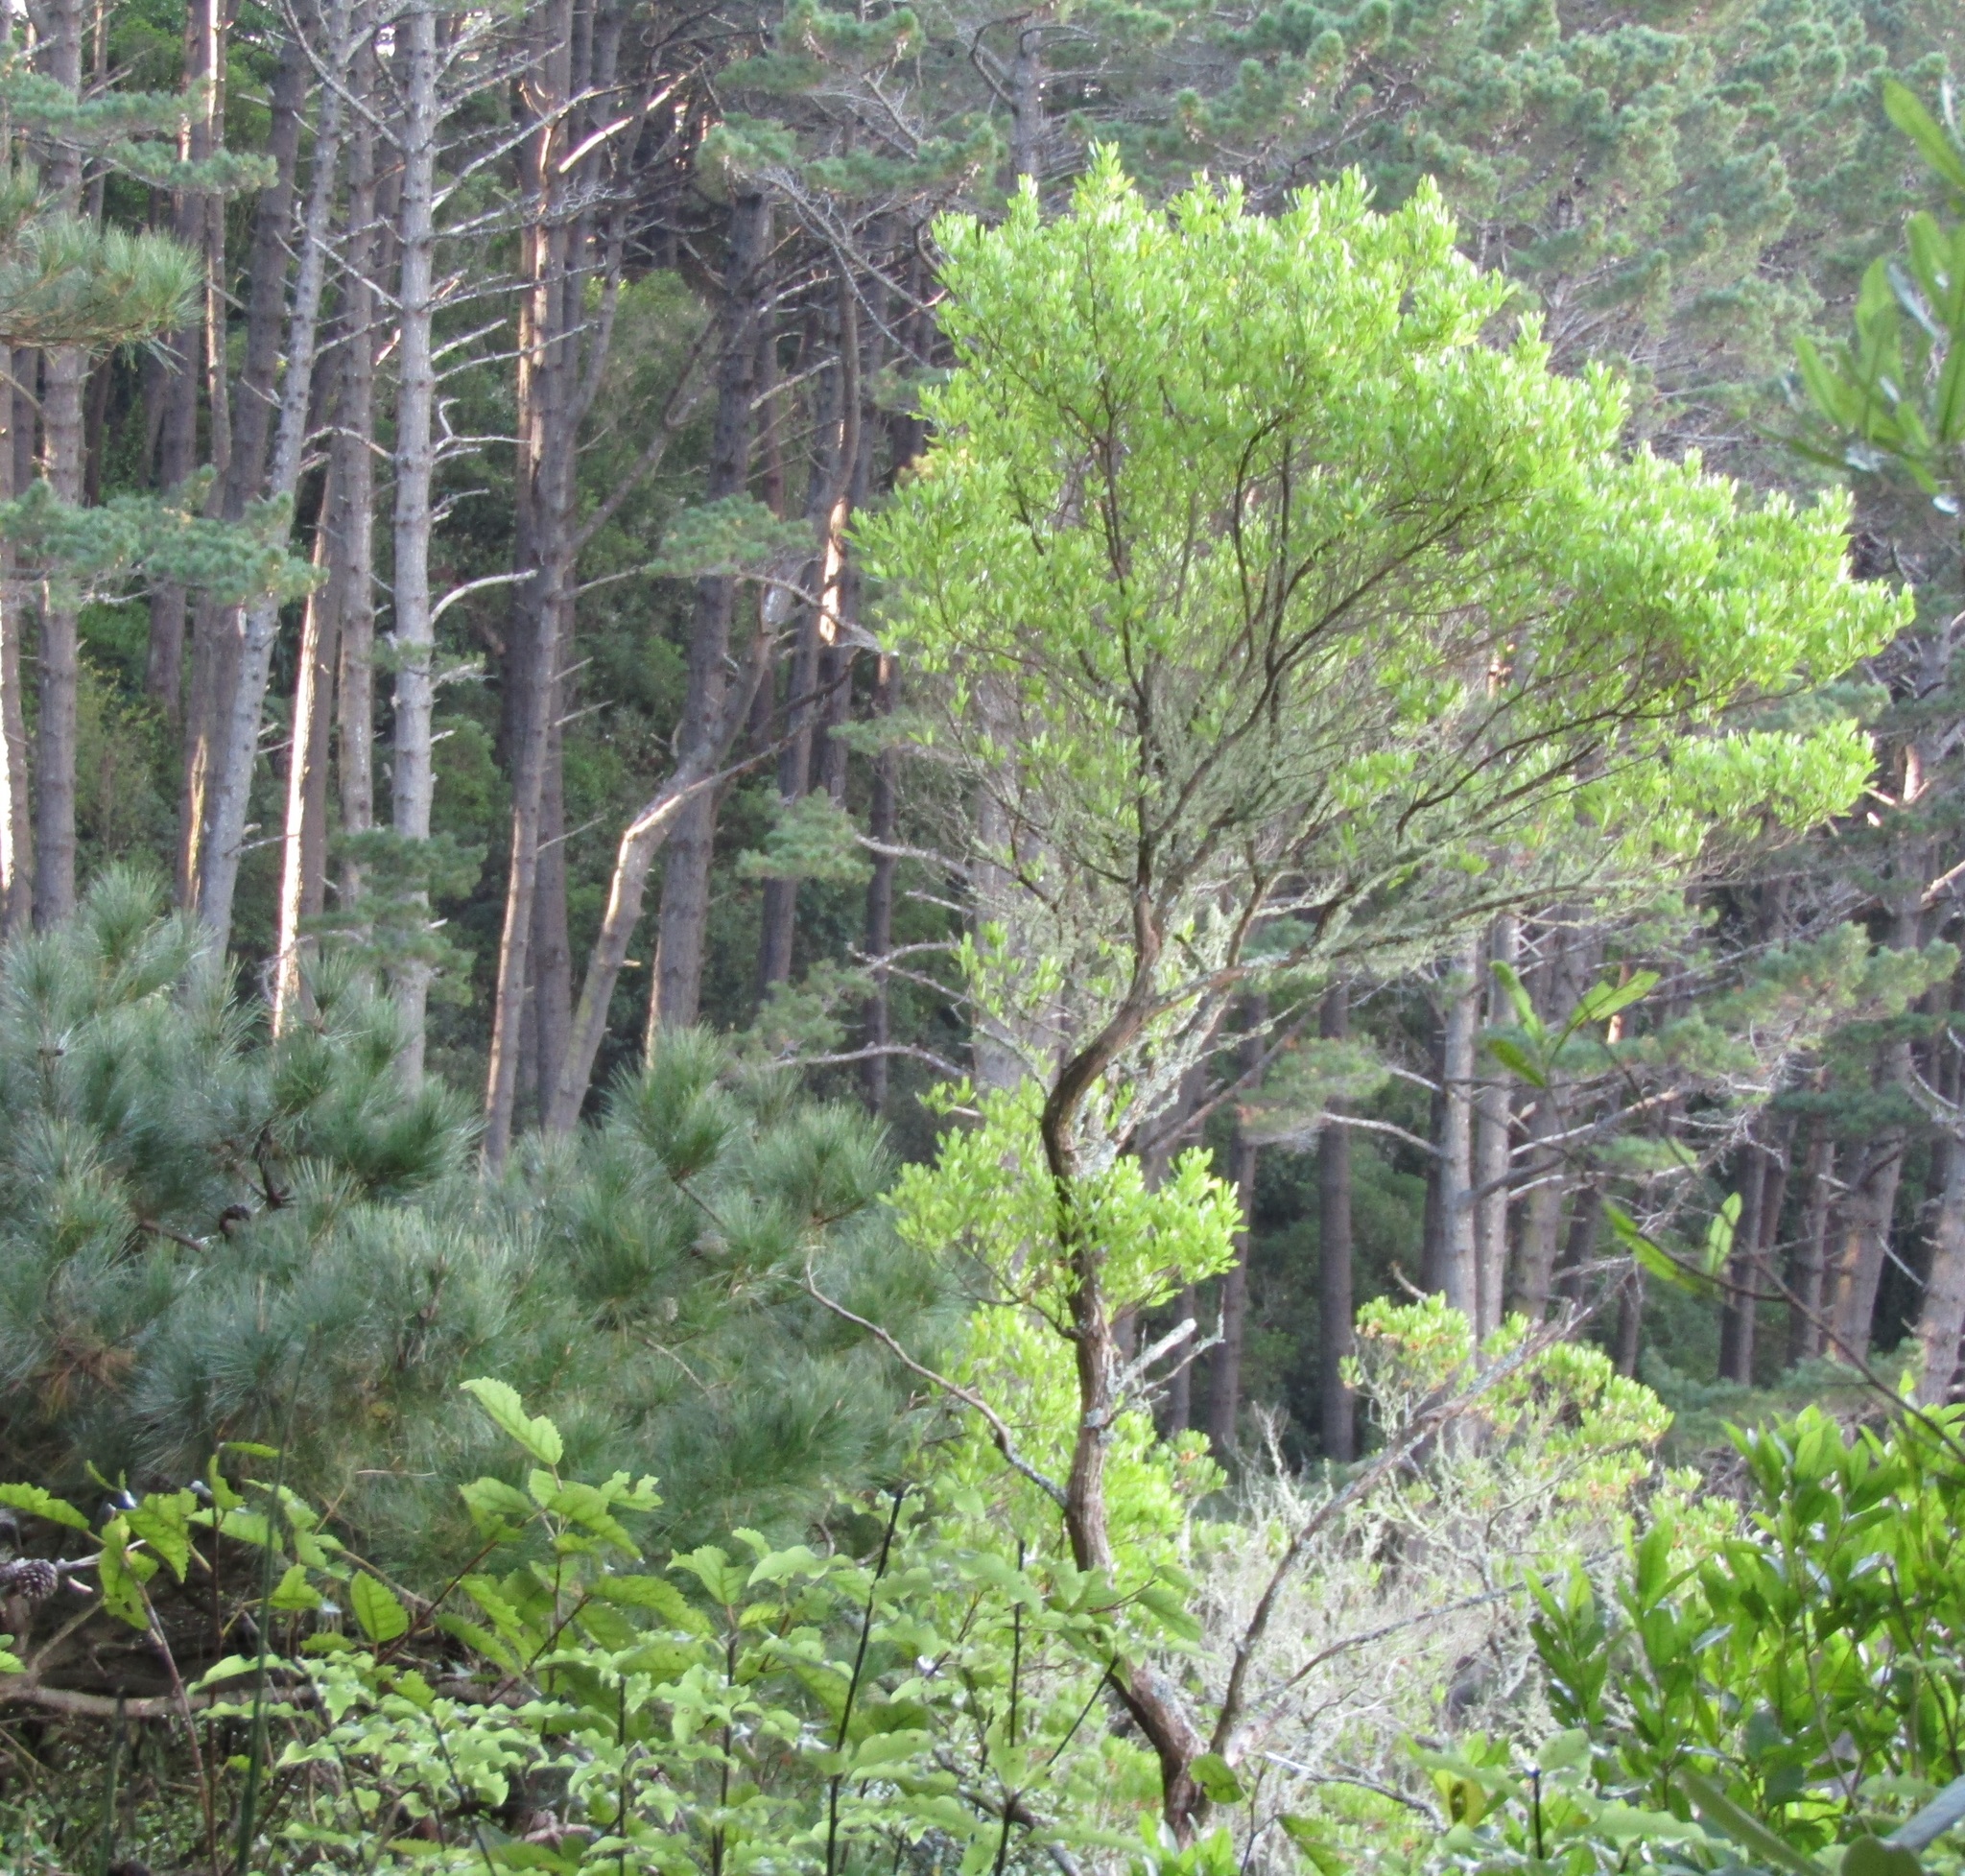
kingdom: Plantae
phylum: Tracheophyta
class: Magnoliopsida
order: Sapindales
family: Sapindaceae
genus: Dodonaea
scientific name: Dodonaea viscosa
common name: Hopbush
